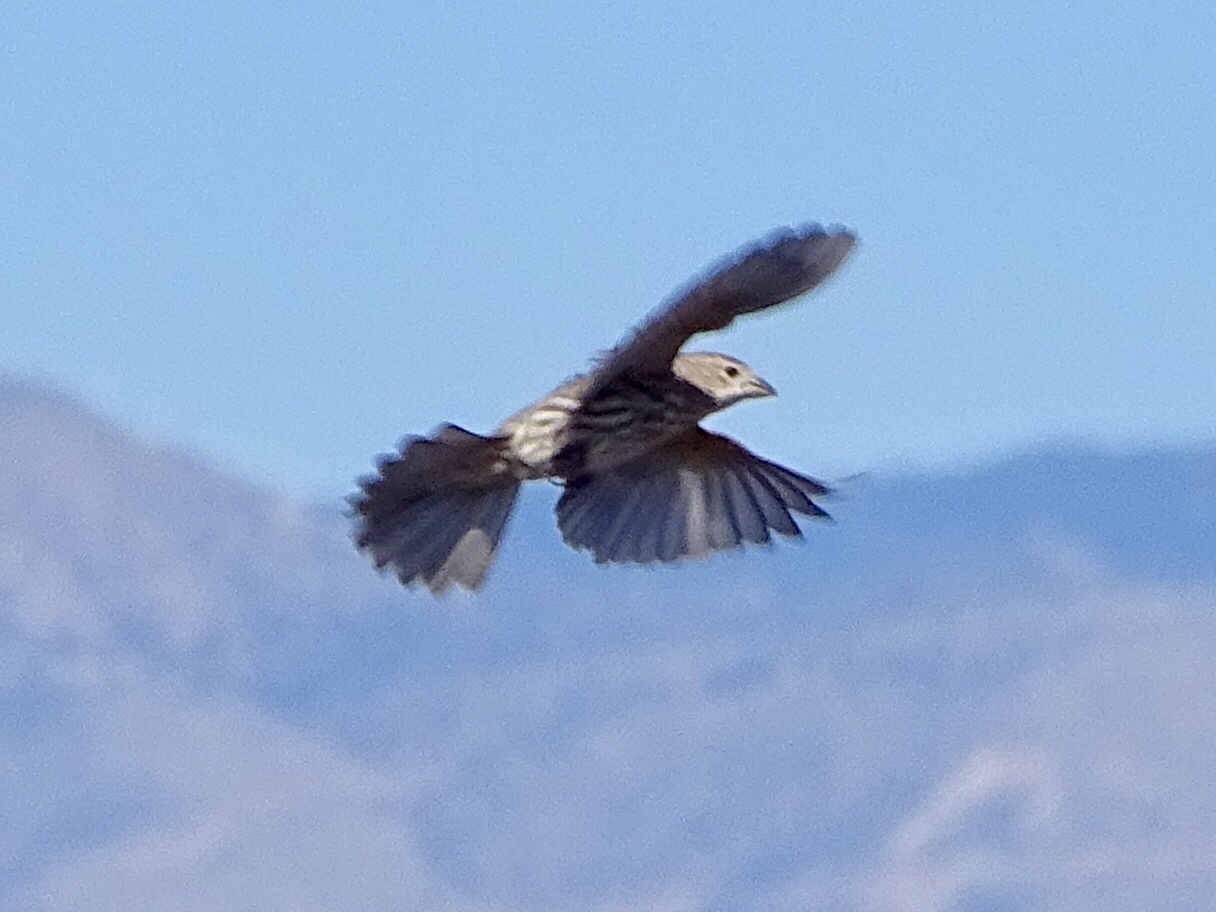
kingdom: Animalia
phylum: Chordata
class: Aves
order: Passeriformes
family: Fringillidae
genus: Haemorhous
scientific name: Haemorhous mexicanus
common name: House finch
